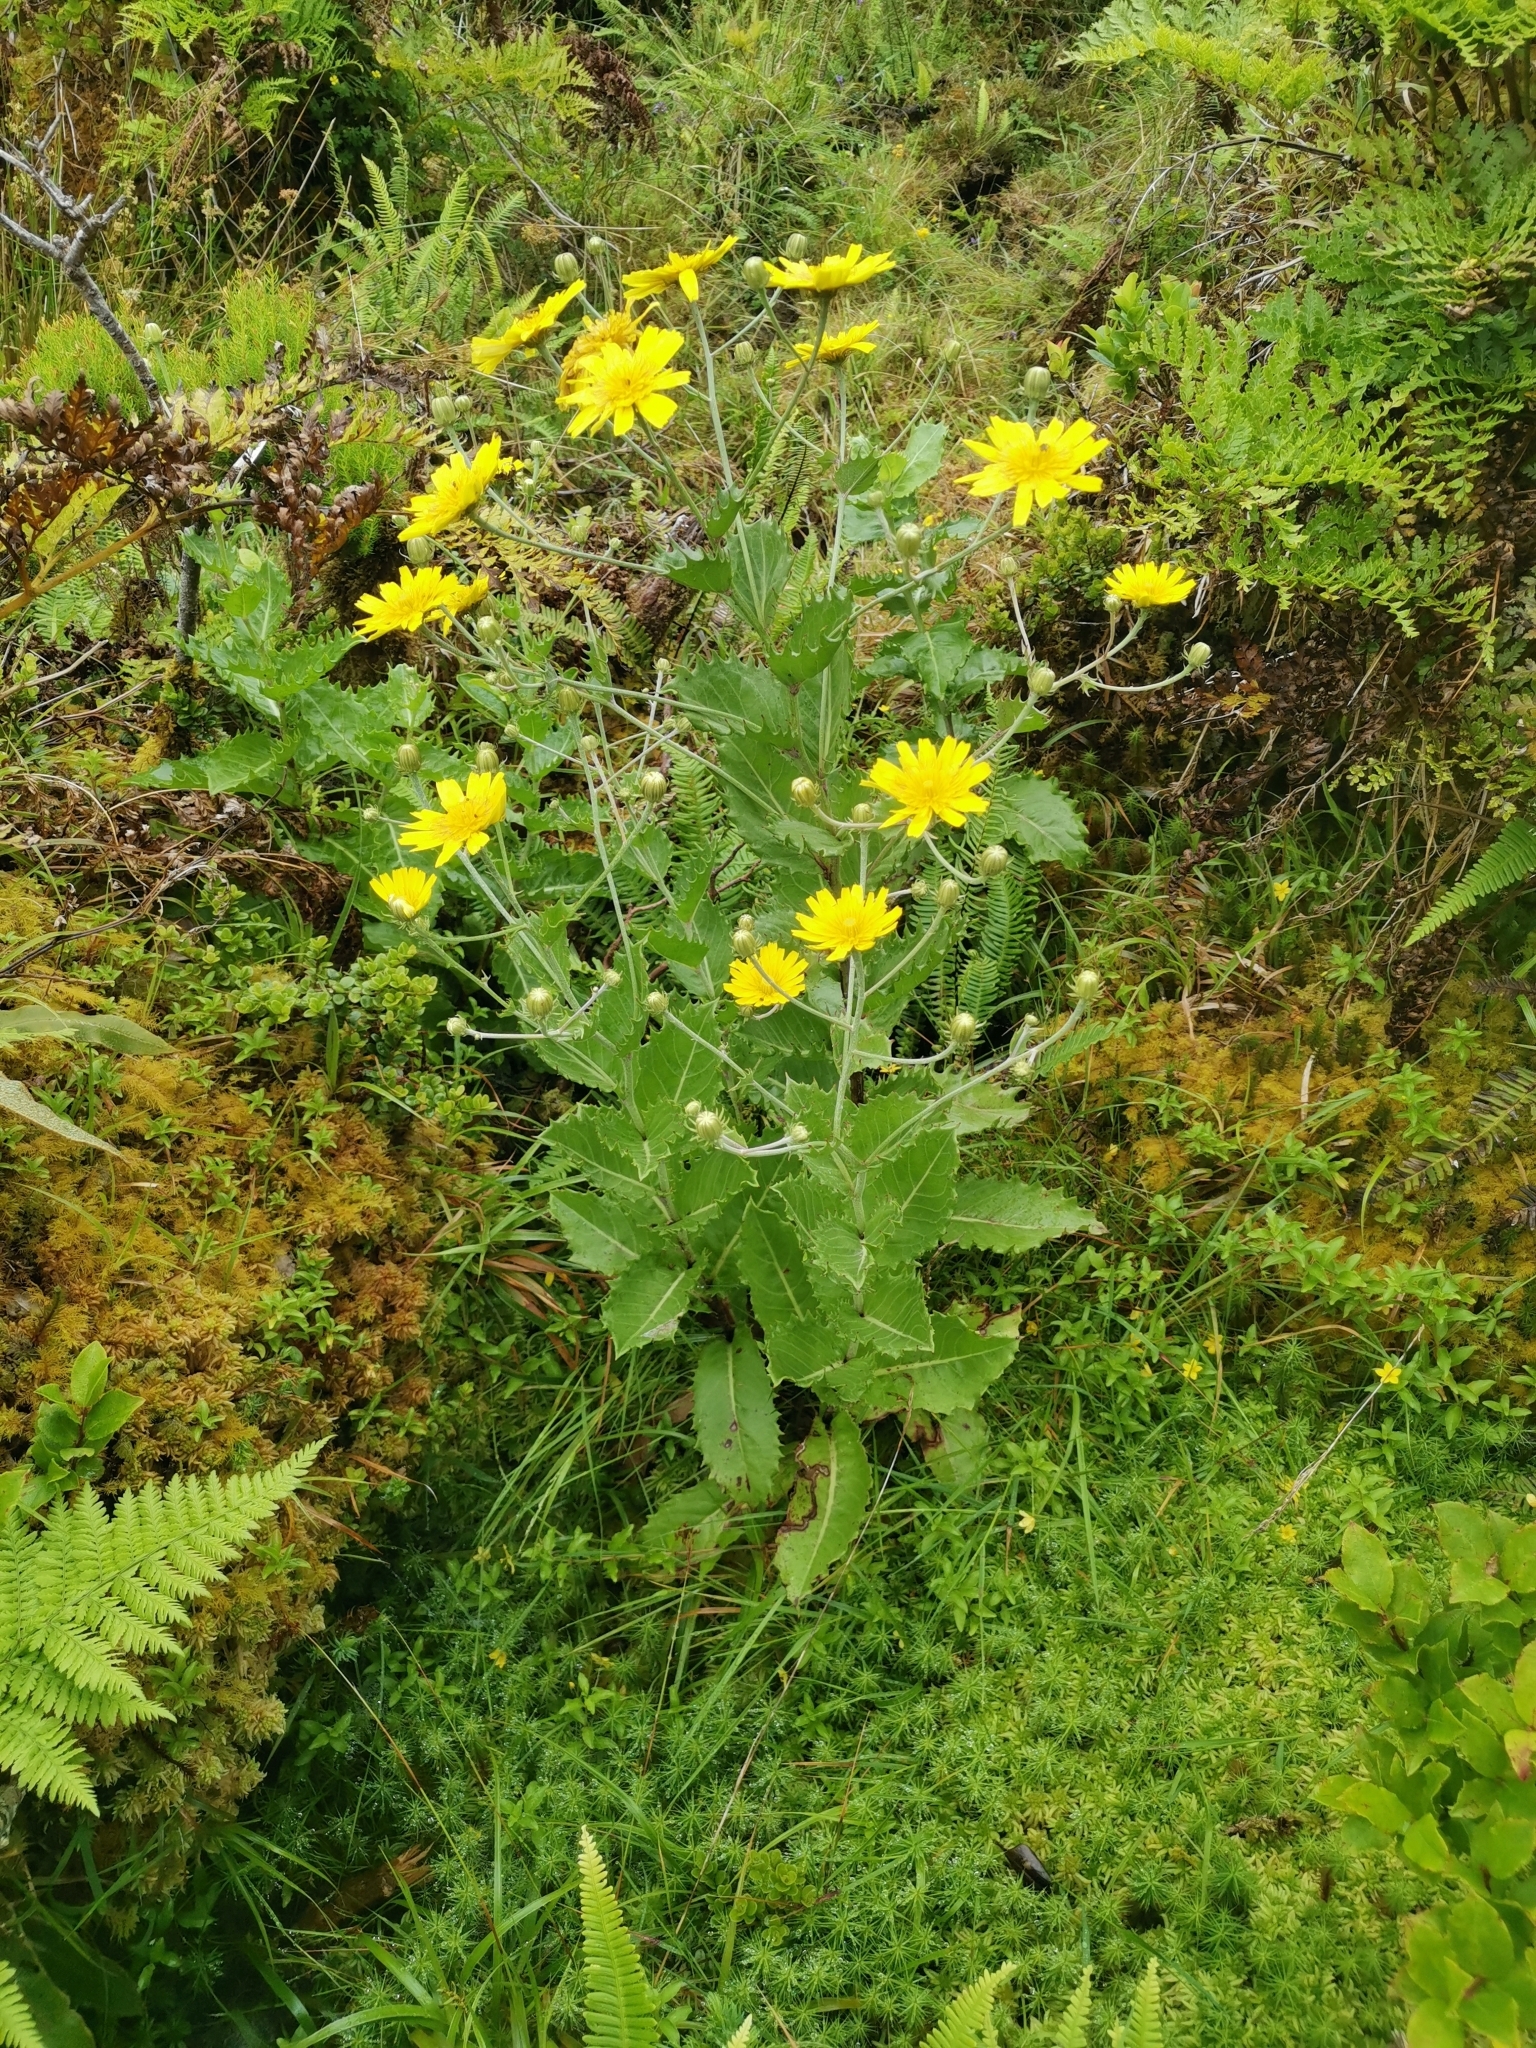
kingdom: Plantae
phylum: Tracheophyta
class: Magnoliopsida
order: Asterales
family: Asteraceae
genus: Tolpis
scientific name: Tolpis azorica
